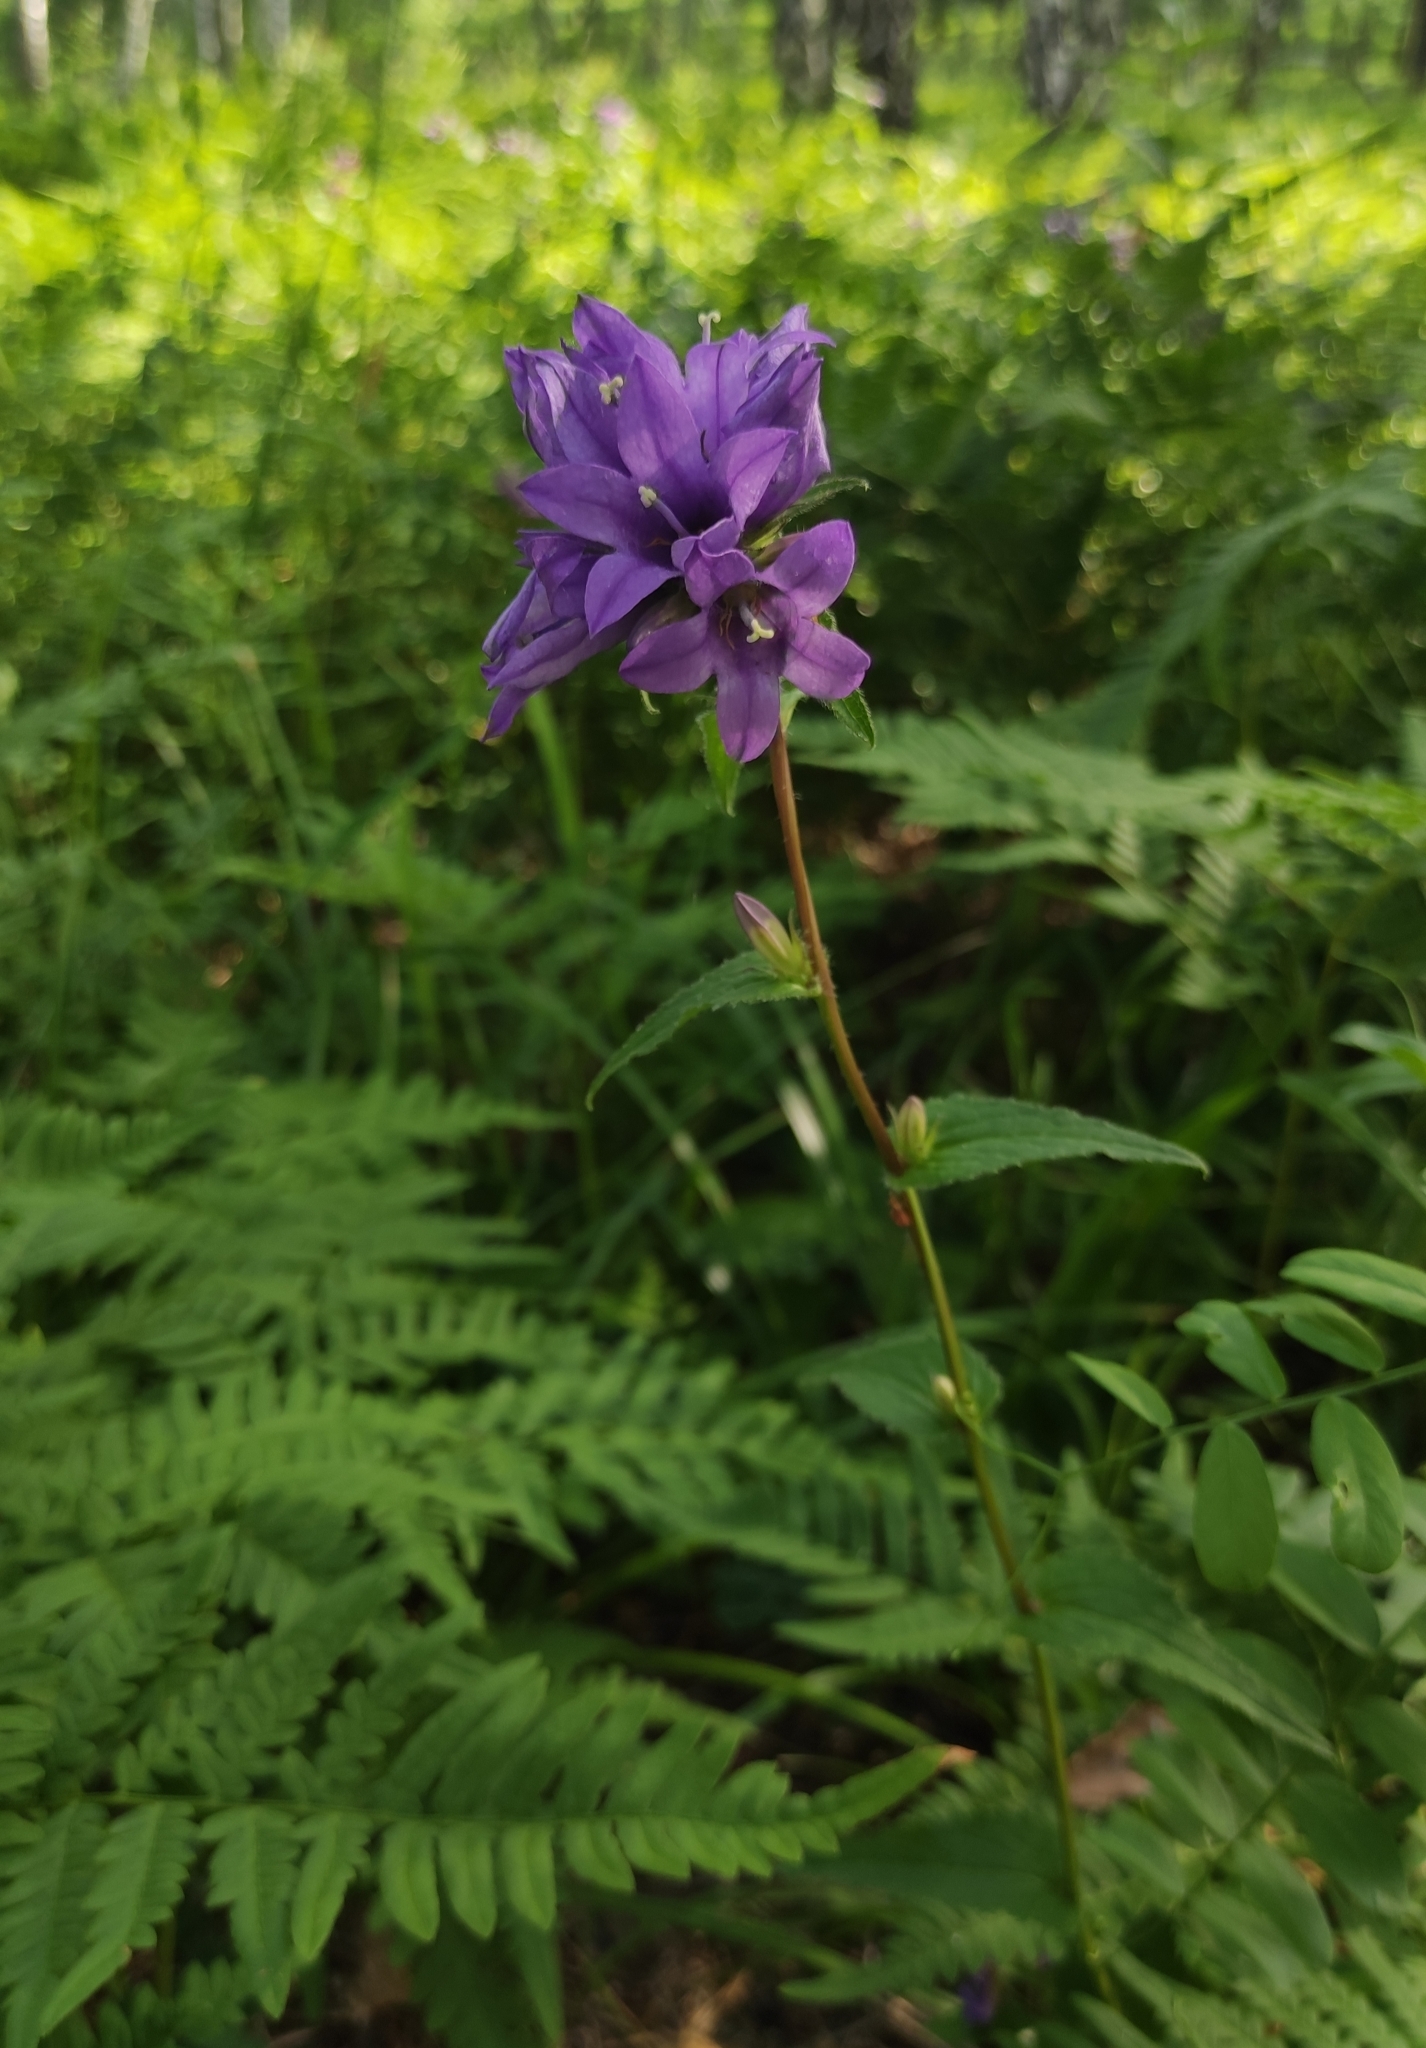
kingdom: Plantae
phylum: Tracheophyta
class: Magnoliopsida
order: Asterales
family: Campanulaceae
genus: Campanula
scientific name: Campanula glomerata
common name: Clustered bellflower
